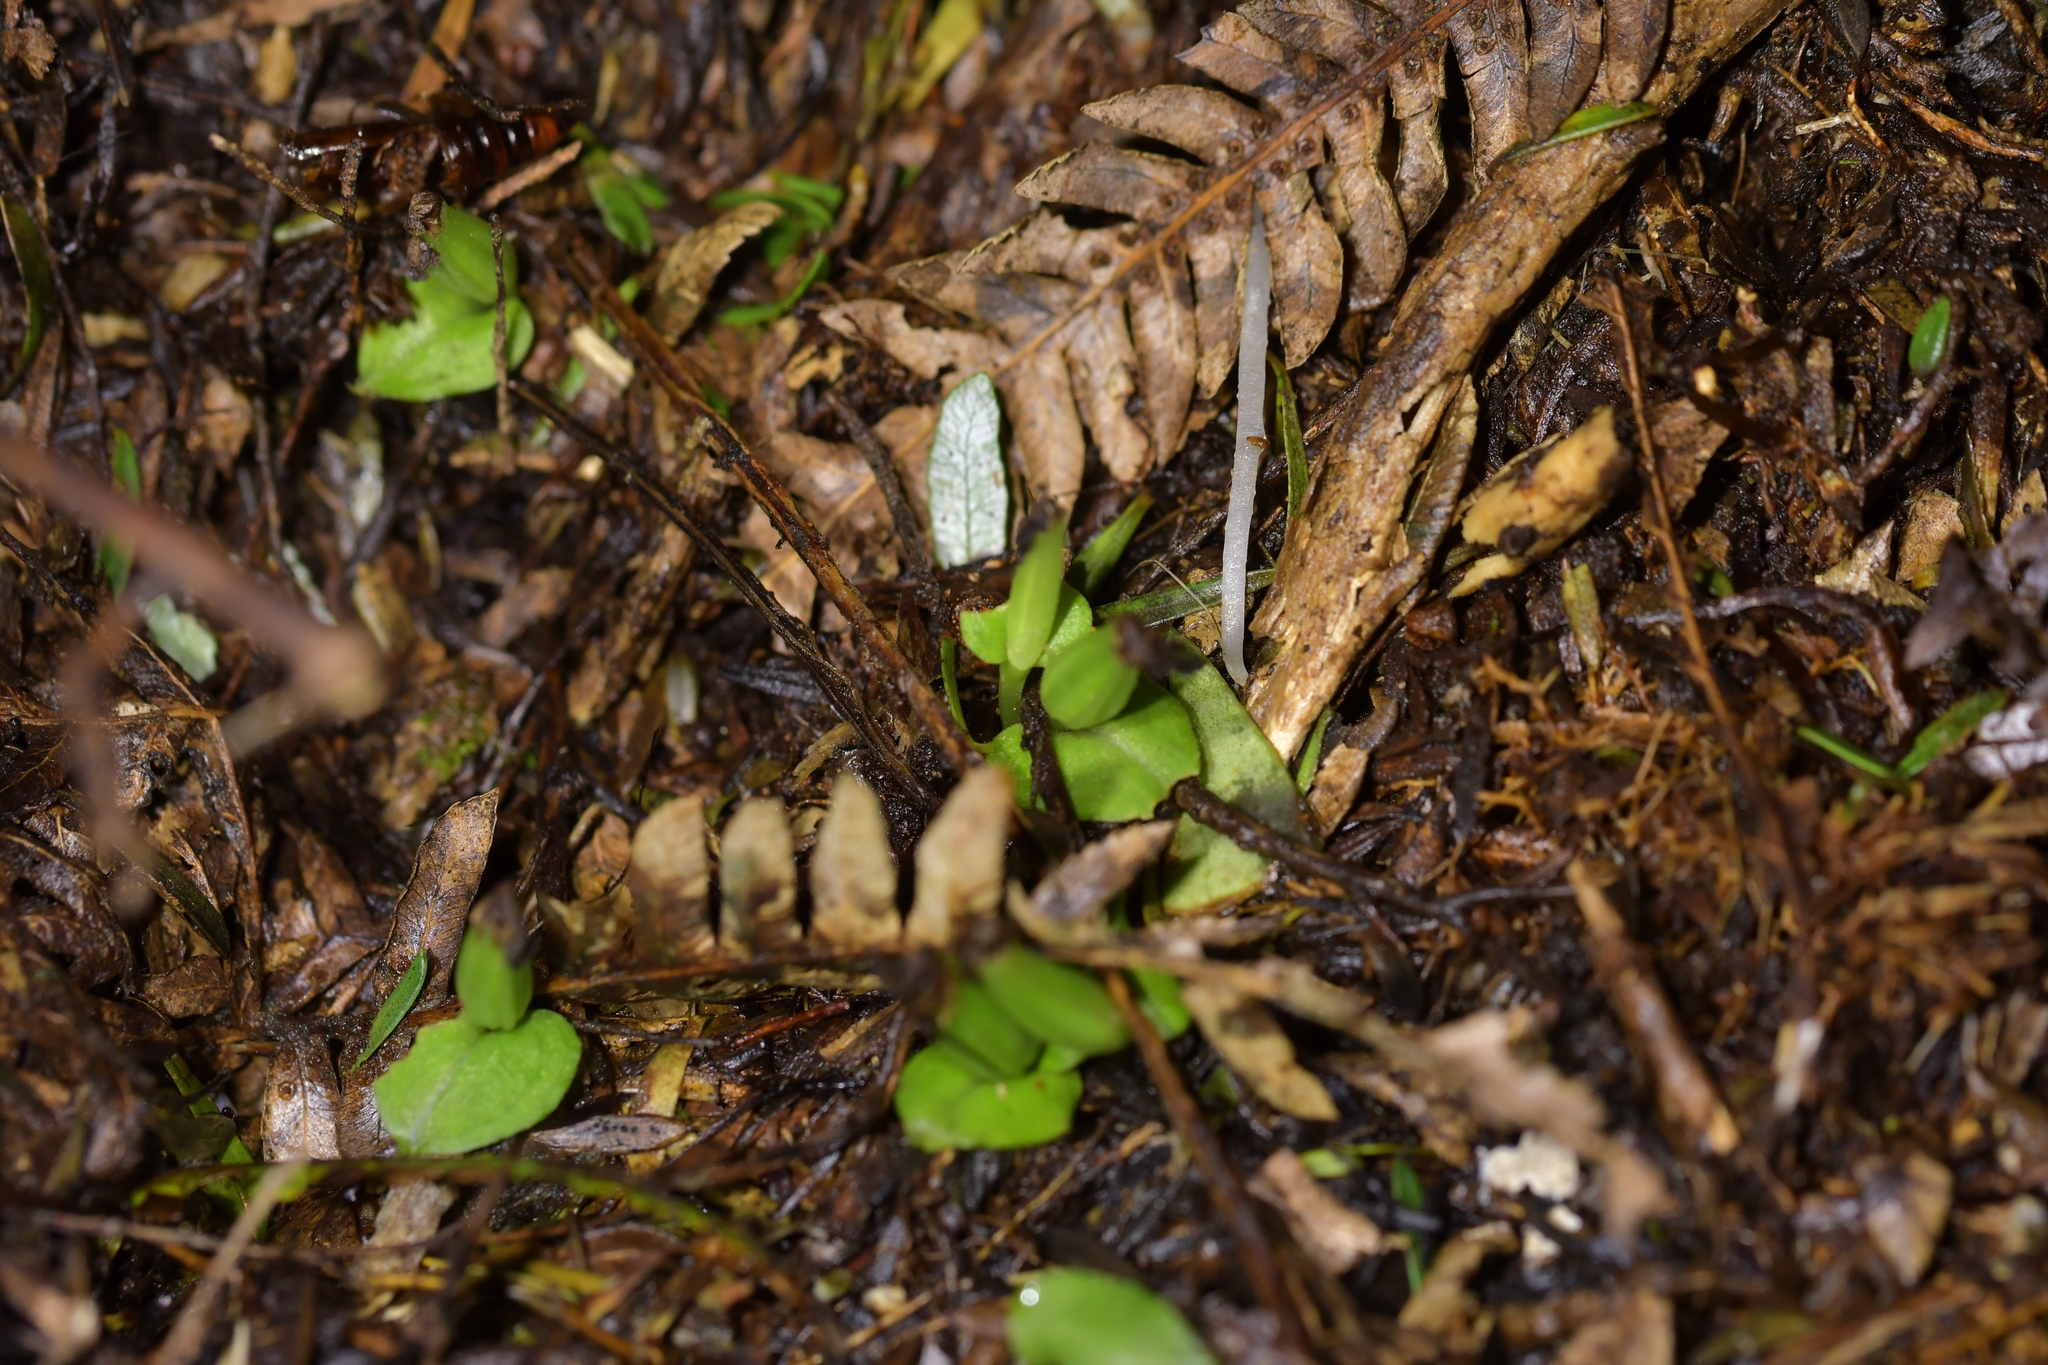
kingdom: Plantae
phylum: Tracheophyta
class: Liliopsida
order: Asparagales
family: Orchidaceae
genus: Corybas
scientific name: Corybas cheesemanii
